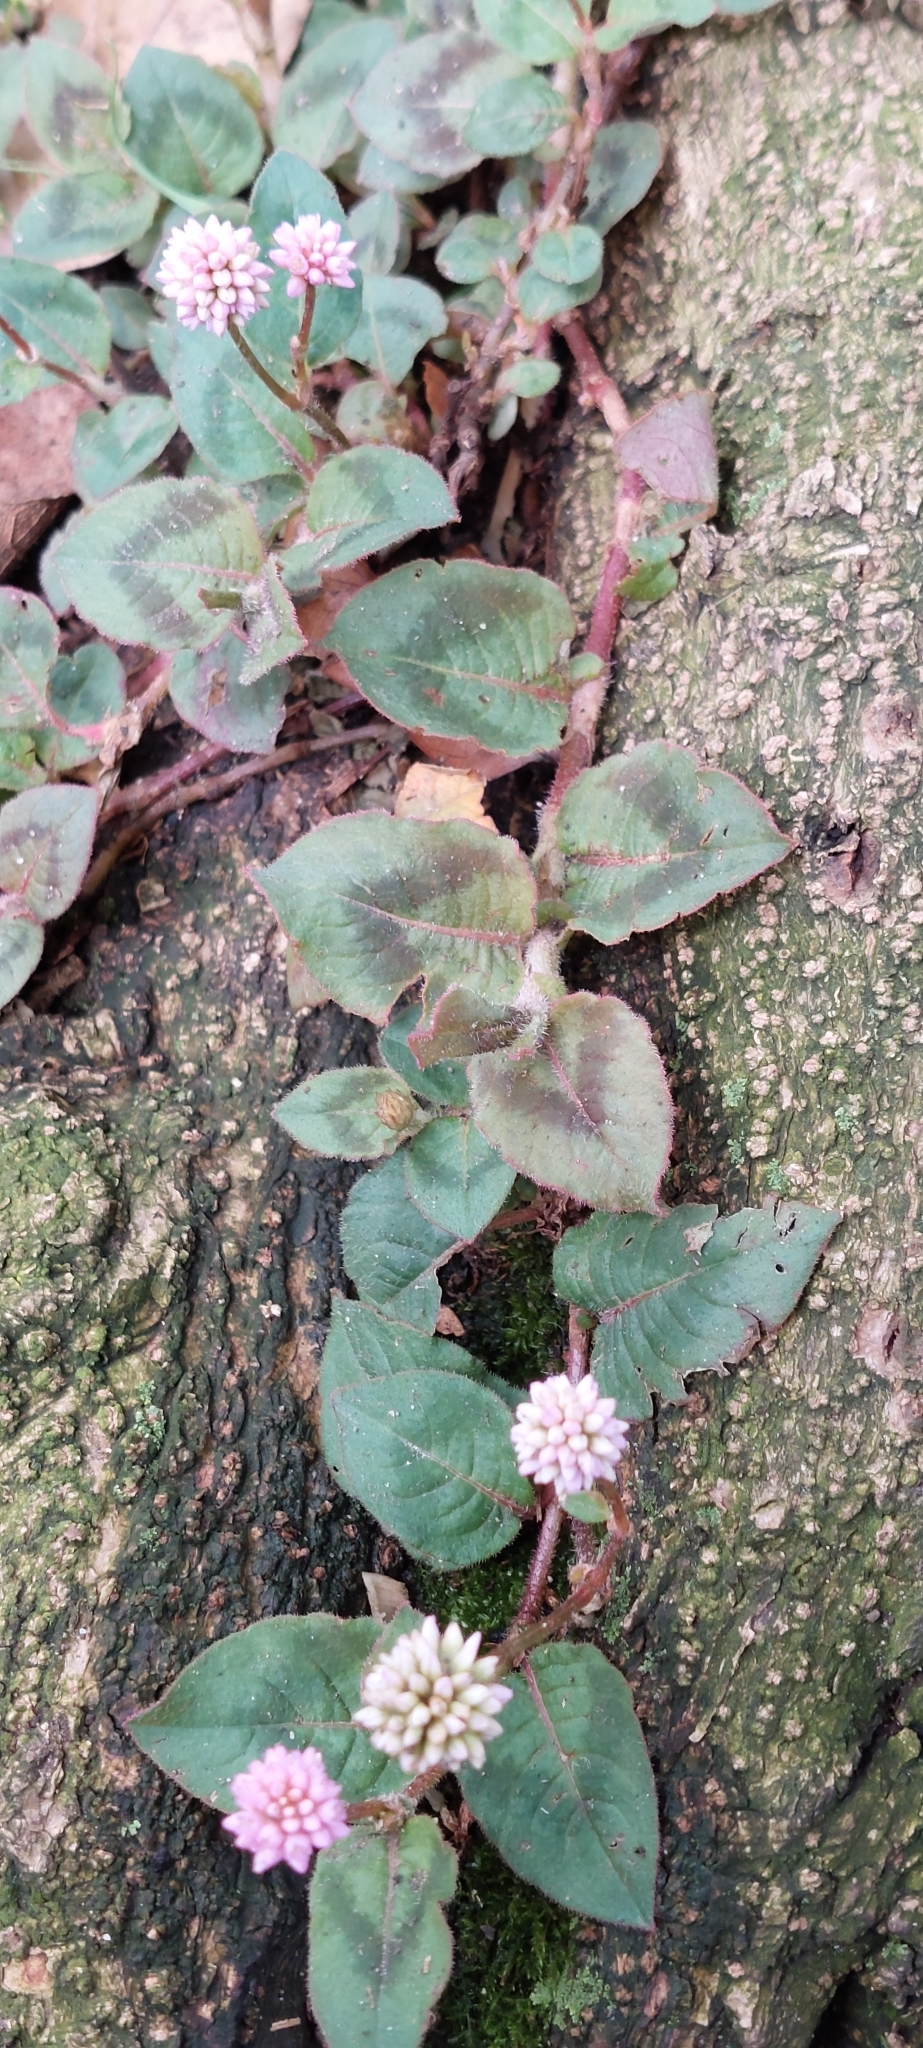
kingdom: Plantae
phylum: Tracheophyta
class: Magnoliopsida
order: Caryophyllales
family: Polygonaceae
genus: Persicaria
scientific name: Persicaria capitata
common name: Pinkhead smartweed
